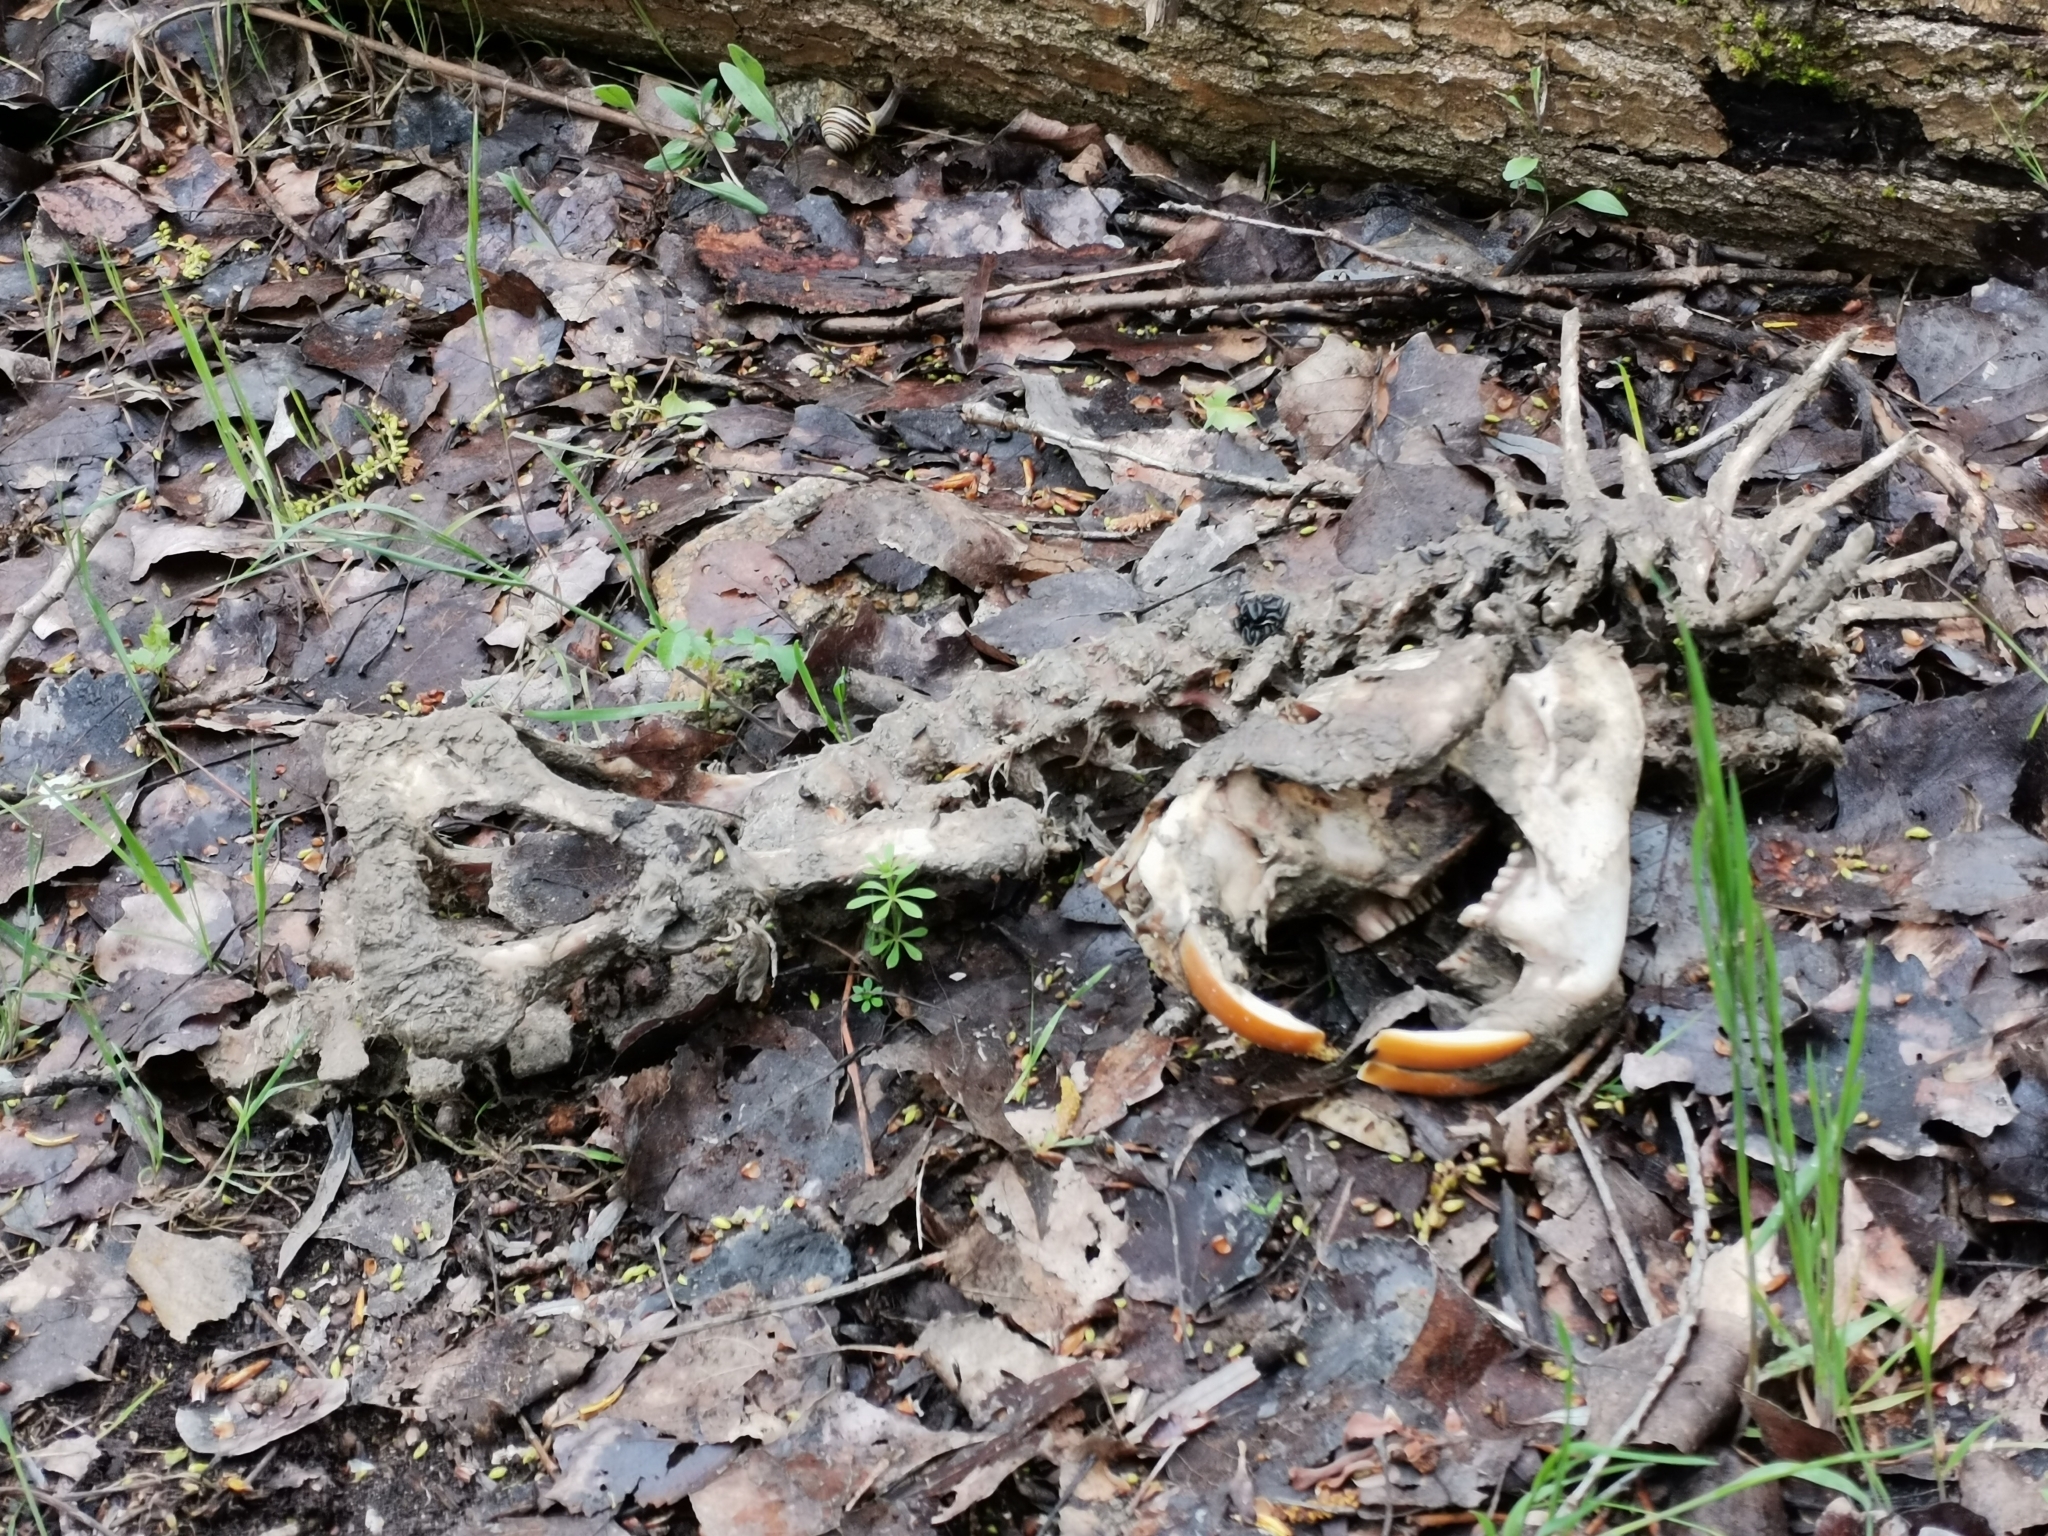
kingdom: Animalia
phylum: Chordata
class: Mammalia
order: Rodentia
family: Castoridae
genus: Castor
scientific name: Castor fiber
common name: Eurasian beaver
